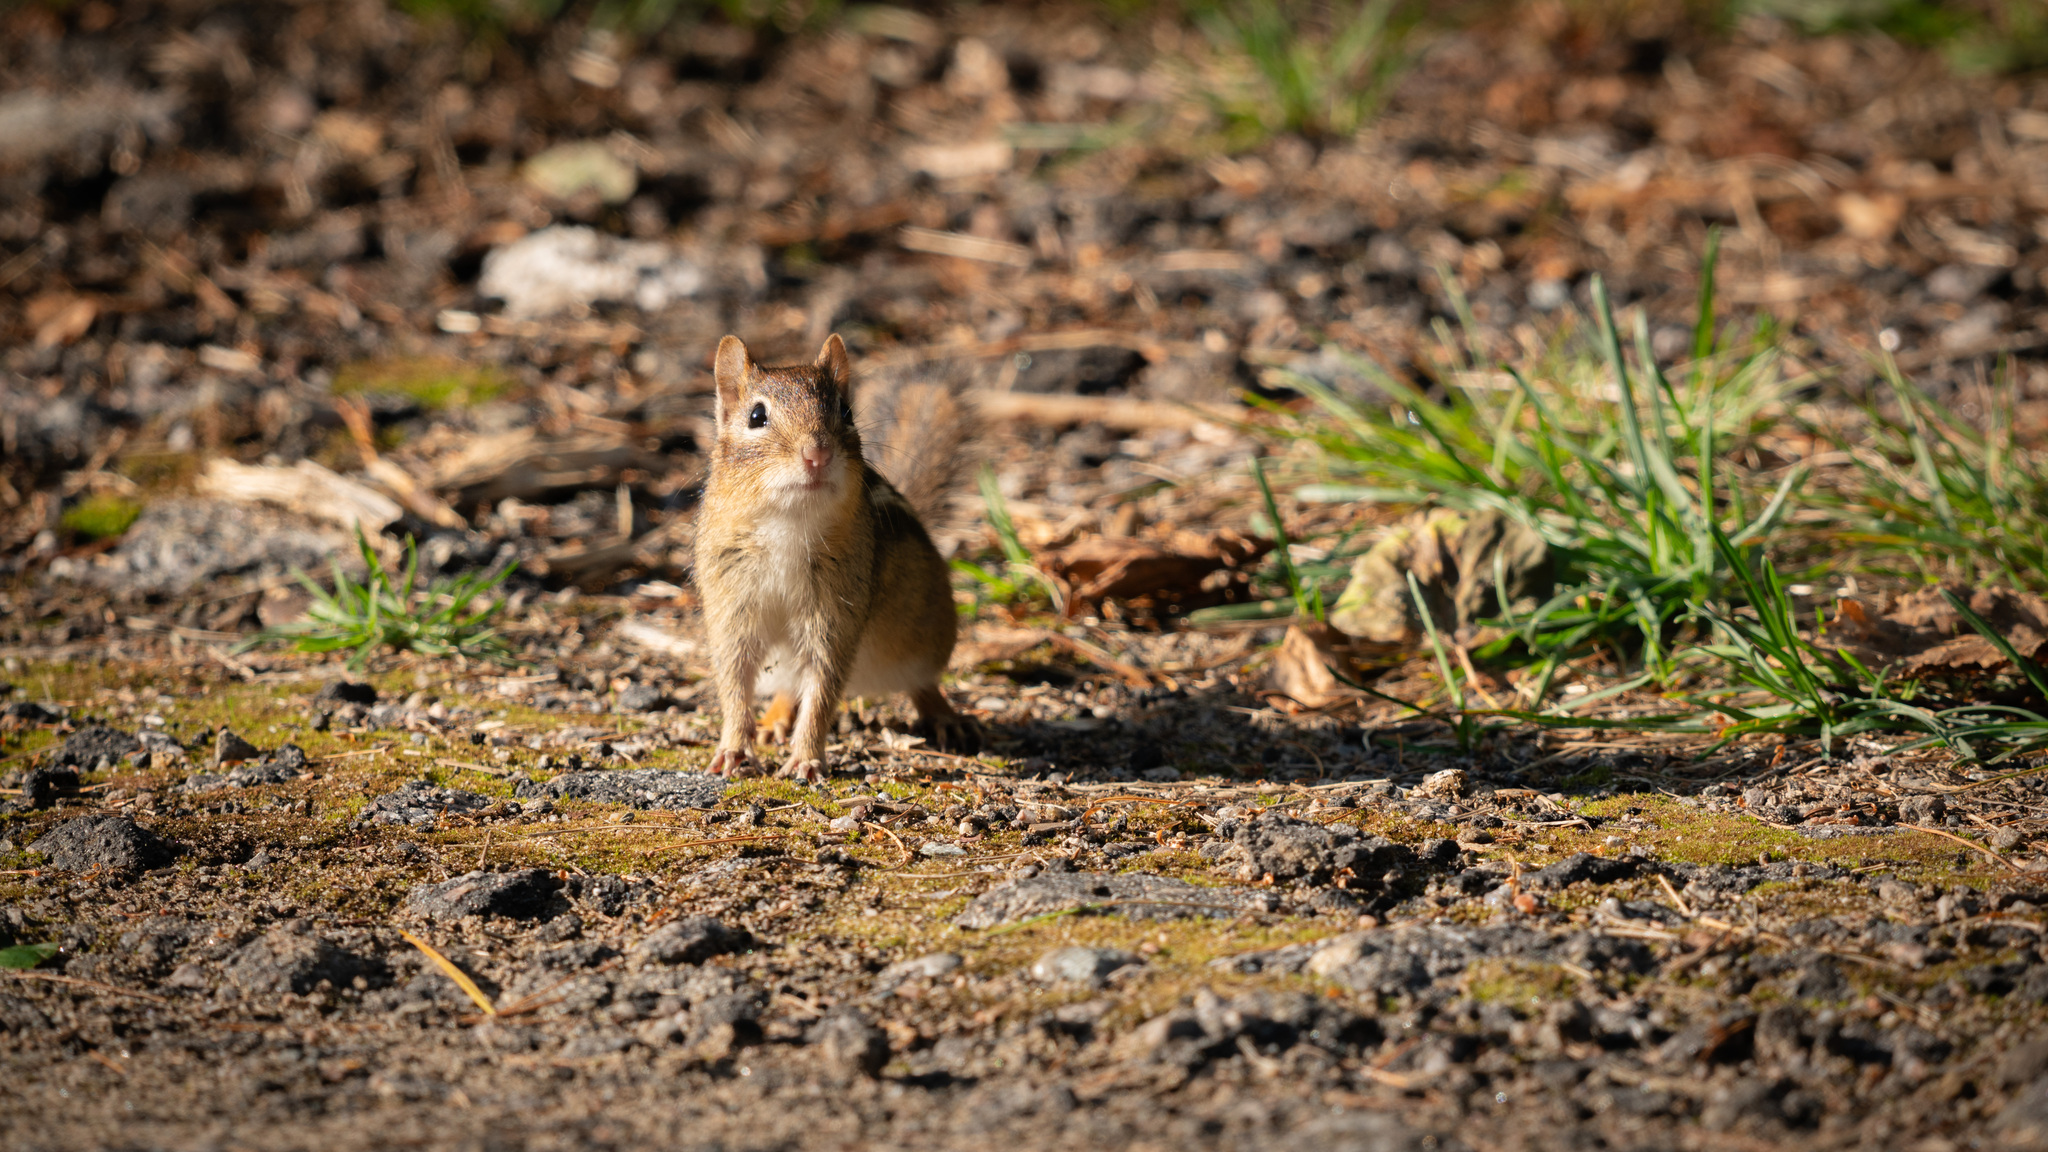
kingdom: Animalia
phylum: Chordata
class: Mammalia
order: Rodentia
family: Sciuridae
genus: Tamias
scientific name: Tamias striatus
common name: Eastern chipmunk
